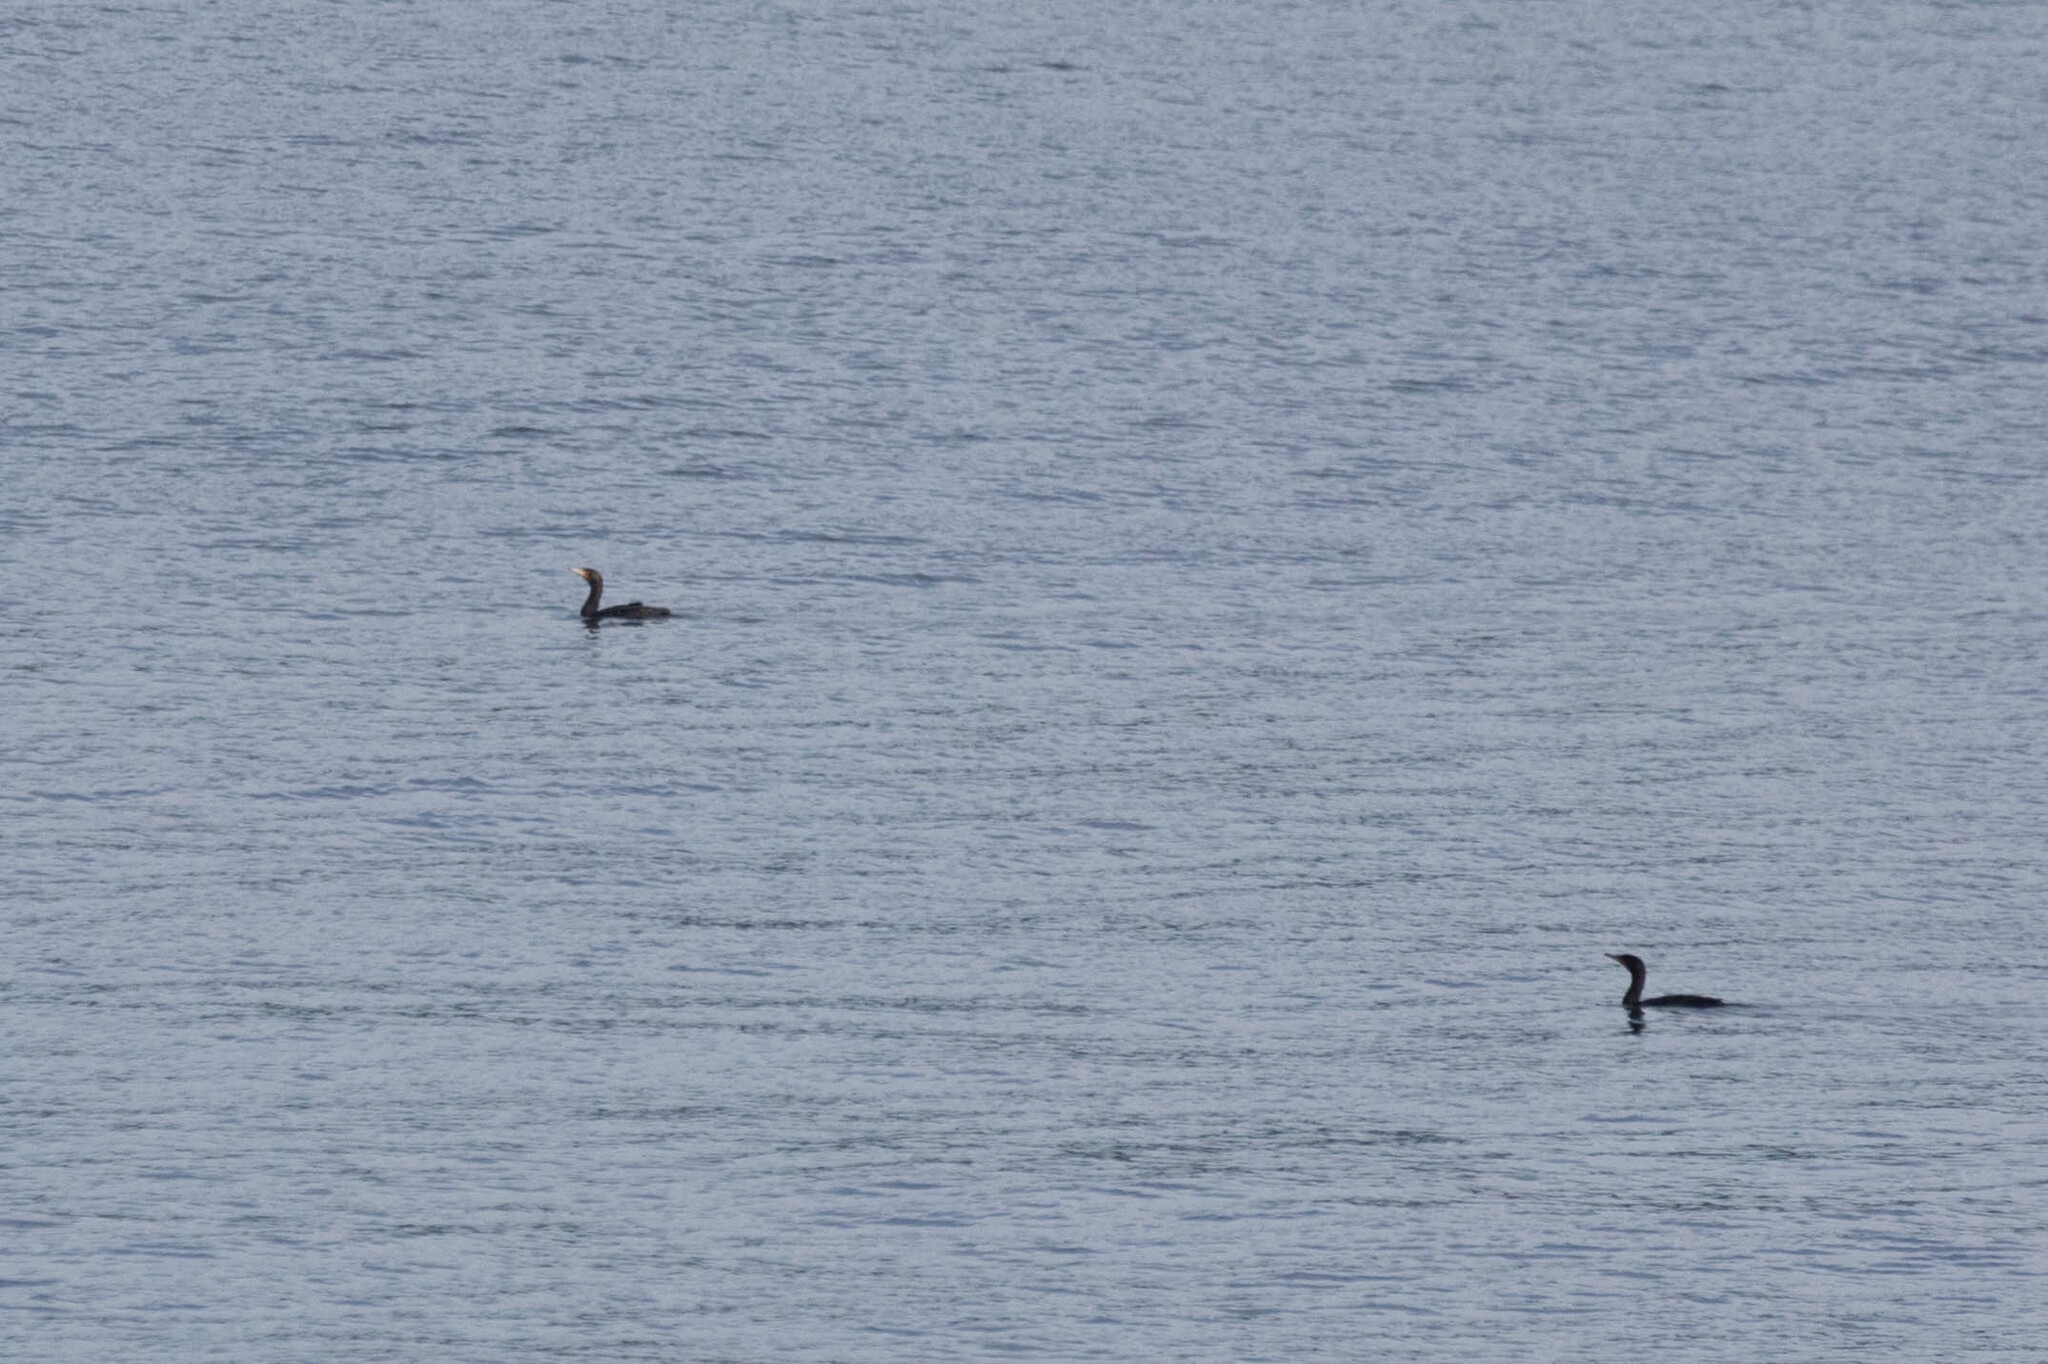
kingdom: Animalia
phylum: Chordata
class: Aves
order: Suliformes
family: Phalacrocoracidae
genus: Phalacrocorax
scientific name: Phalacrocorax auritus
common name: Double-crested cormorant
